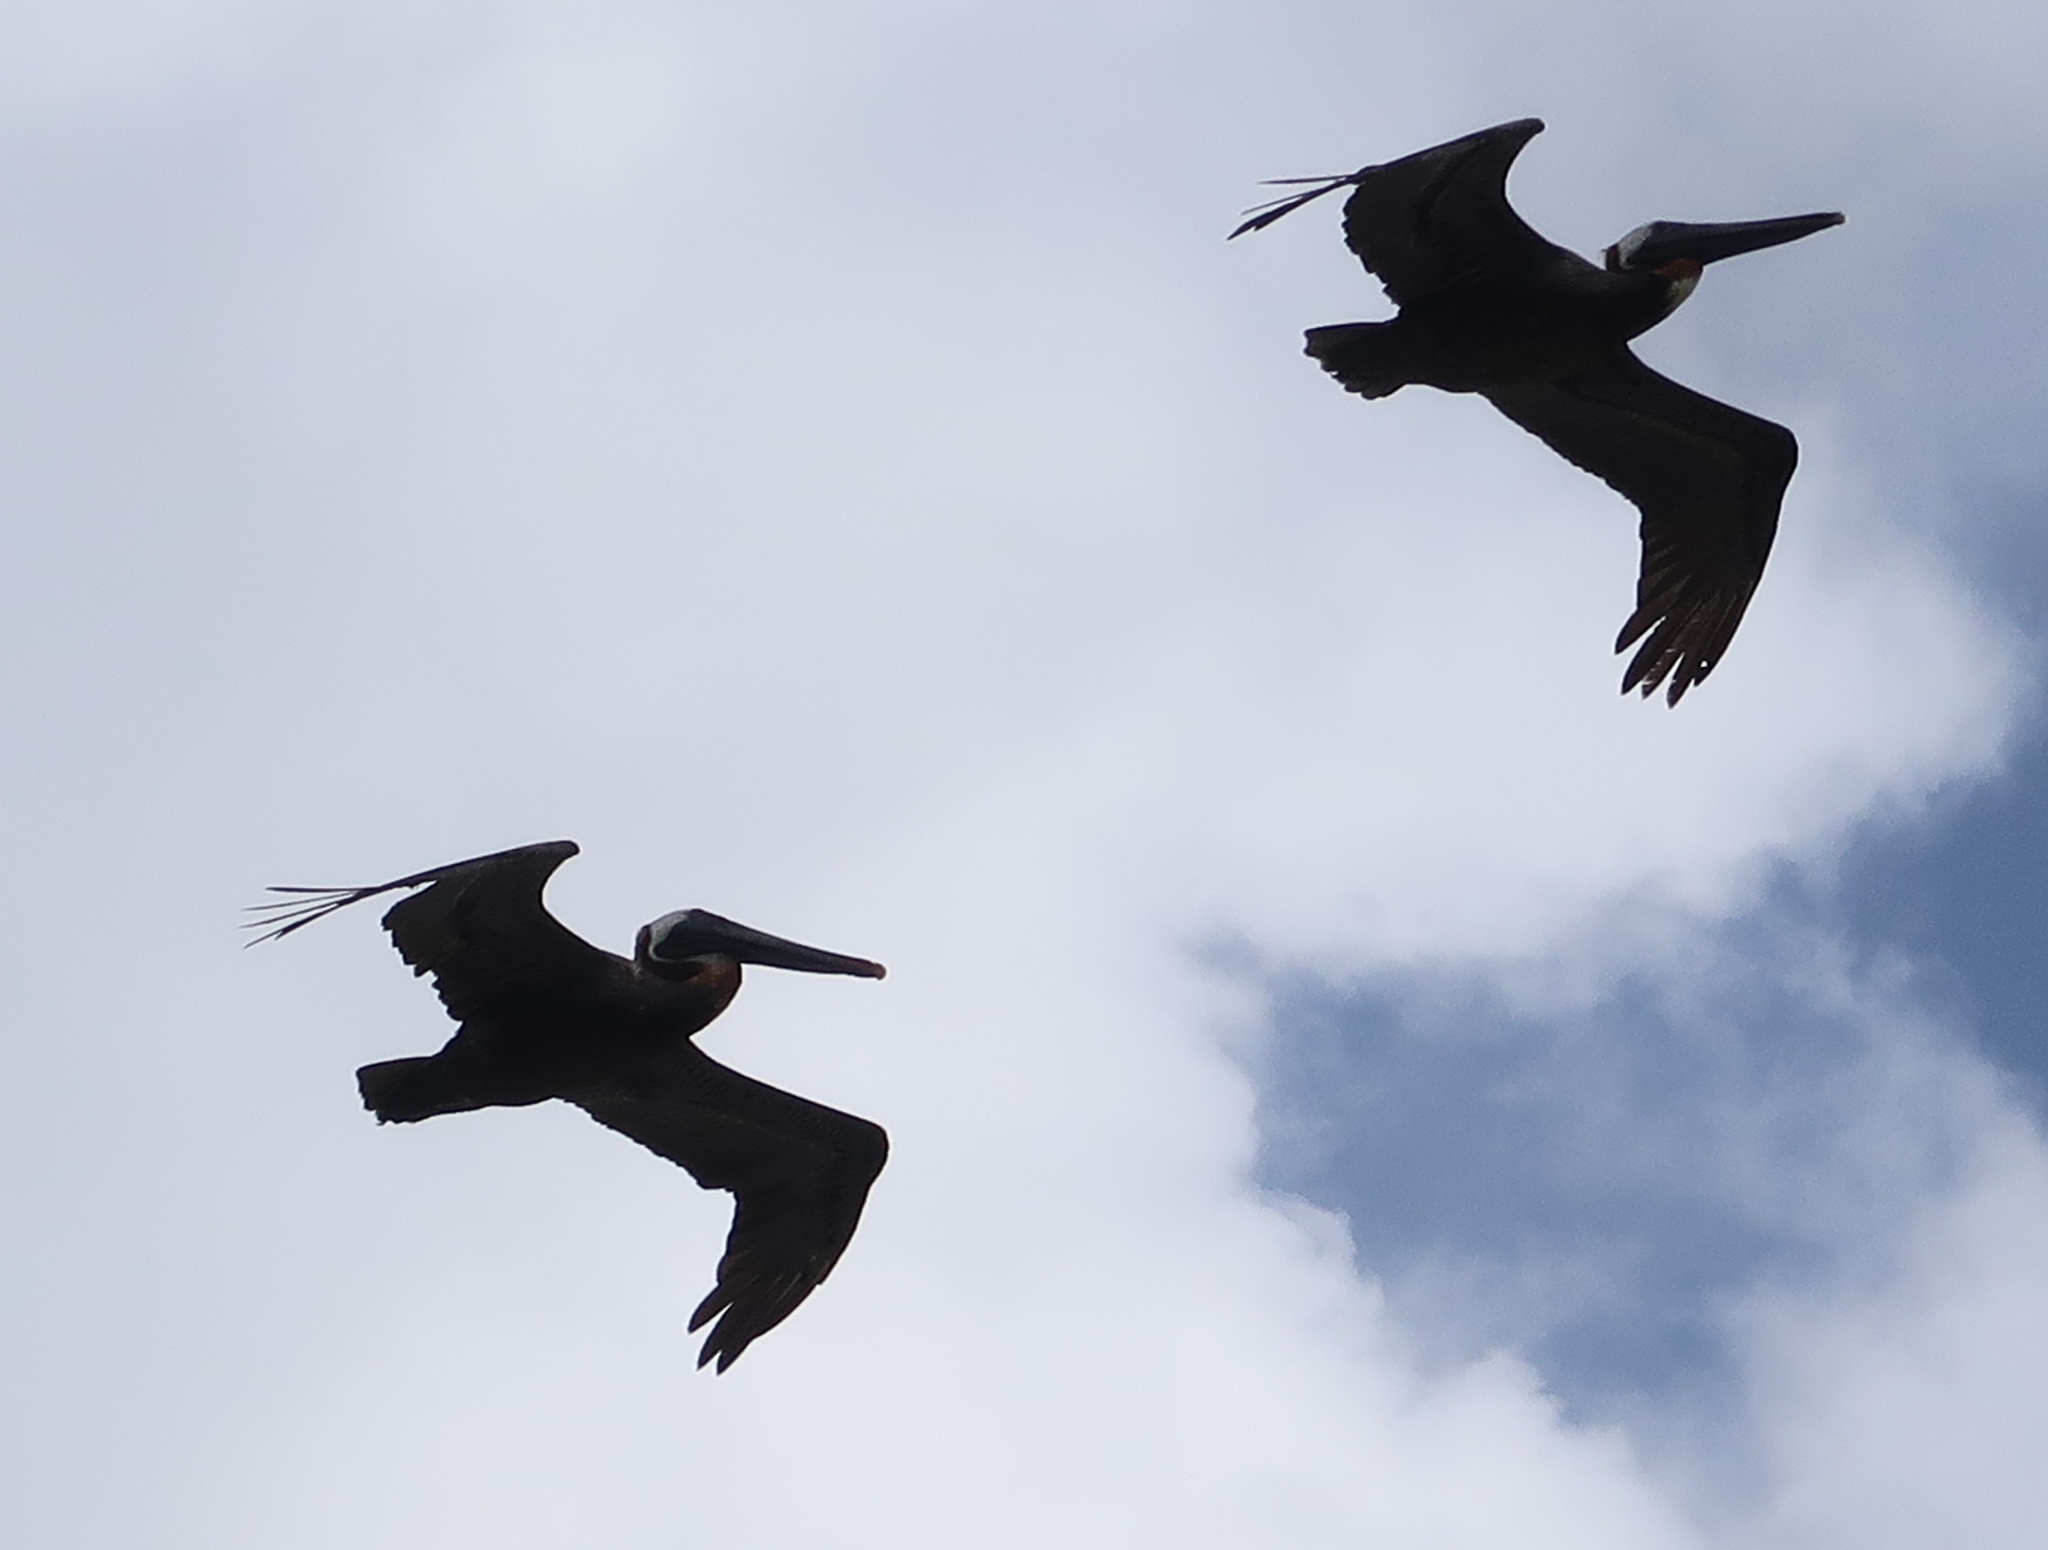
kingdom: Animalia
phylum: Chordata
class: Aves
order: Pelecaniformes
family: Pelecanidae
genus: Pelecanus
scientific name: Pelecanus occidentalis
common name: Brown pelican
